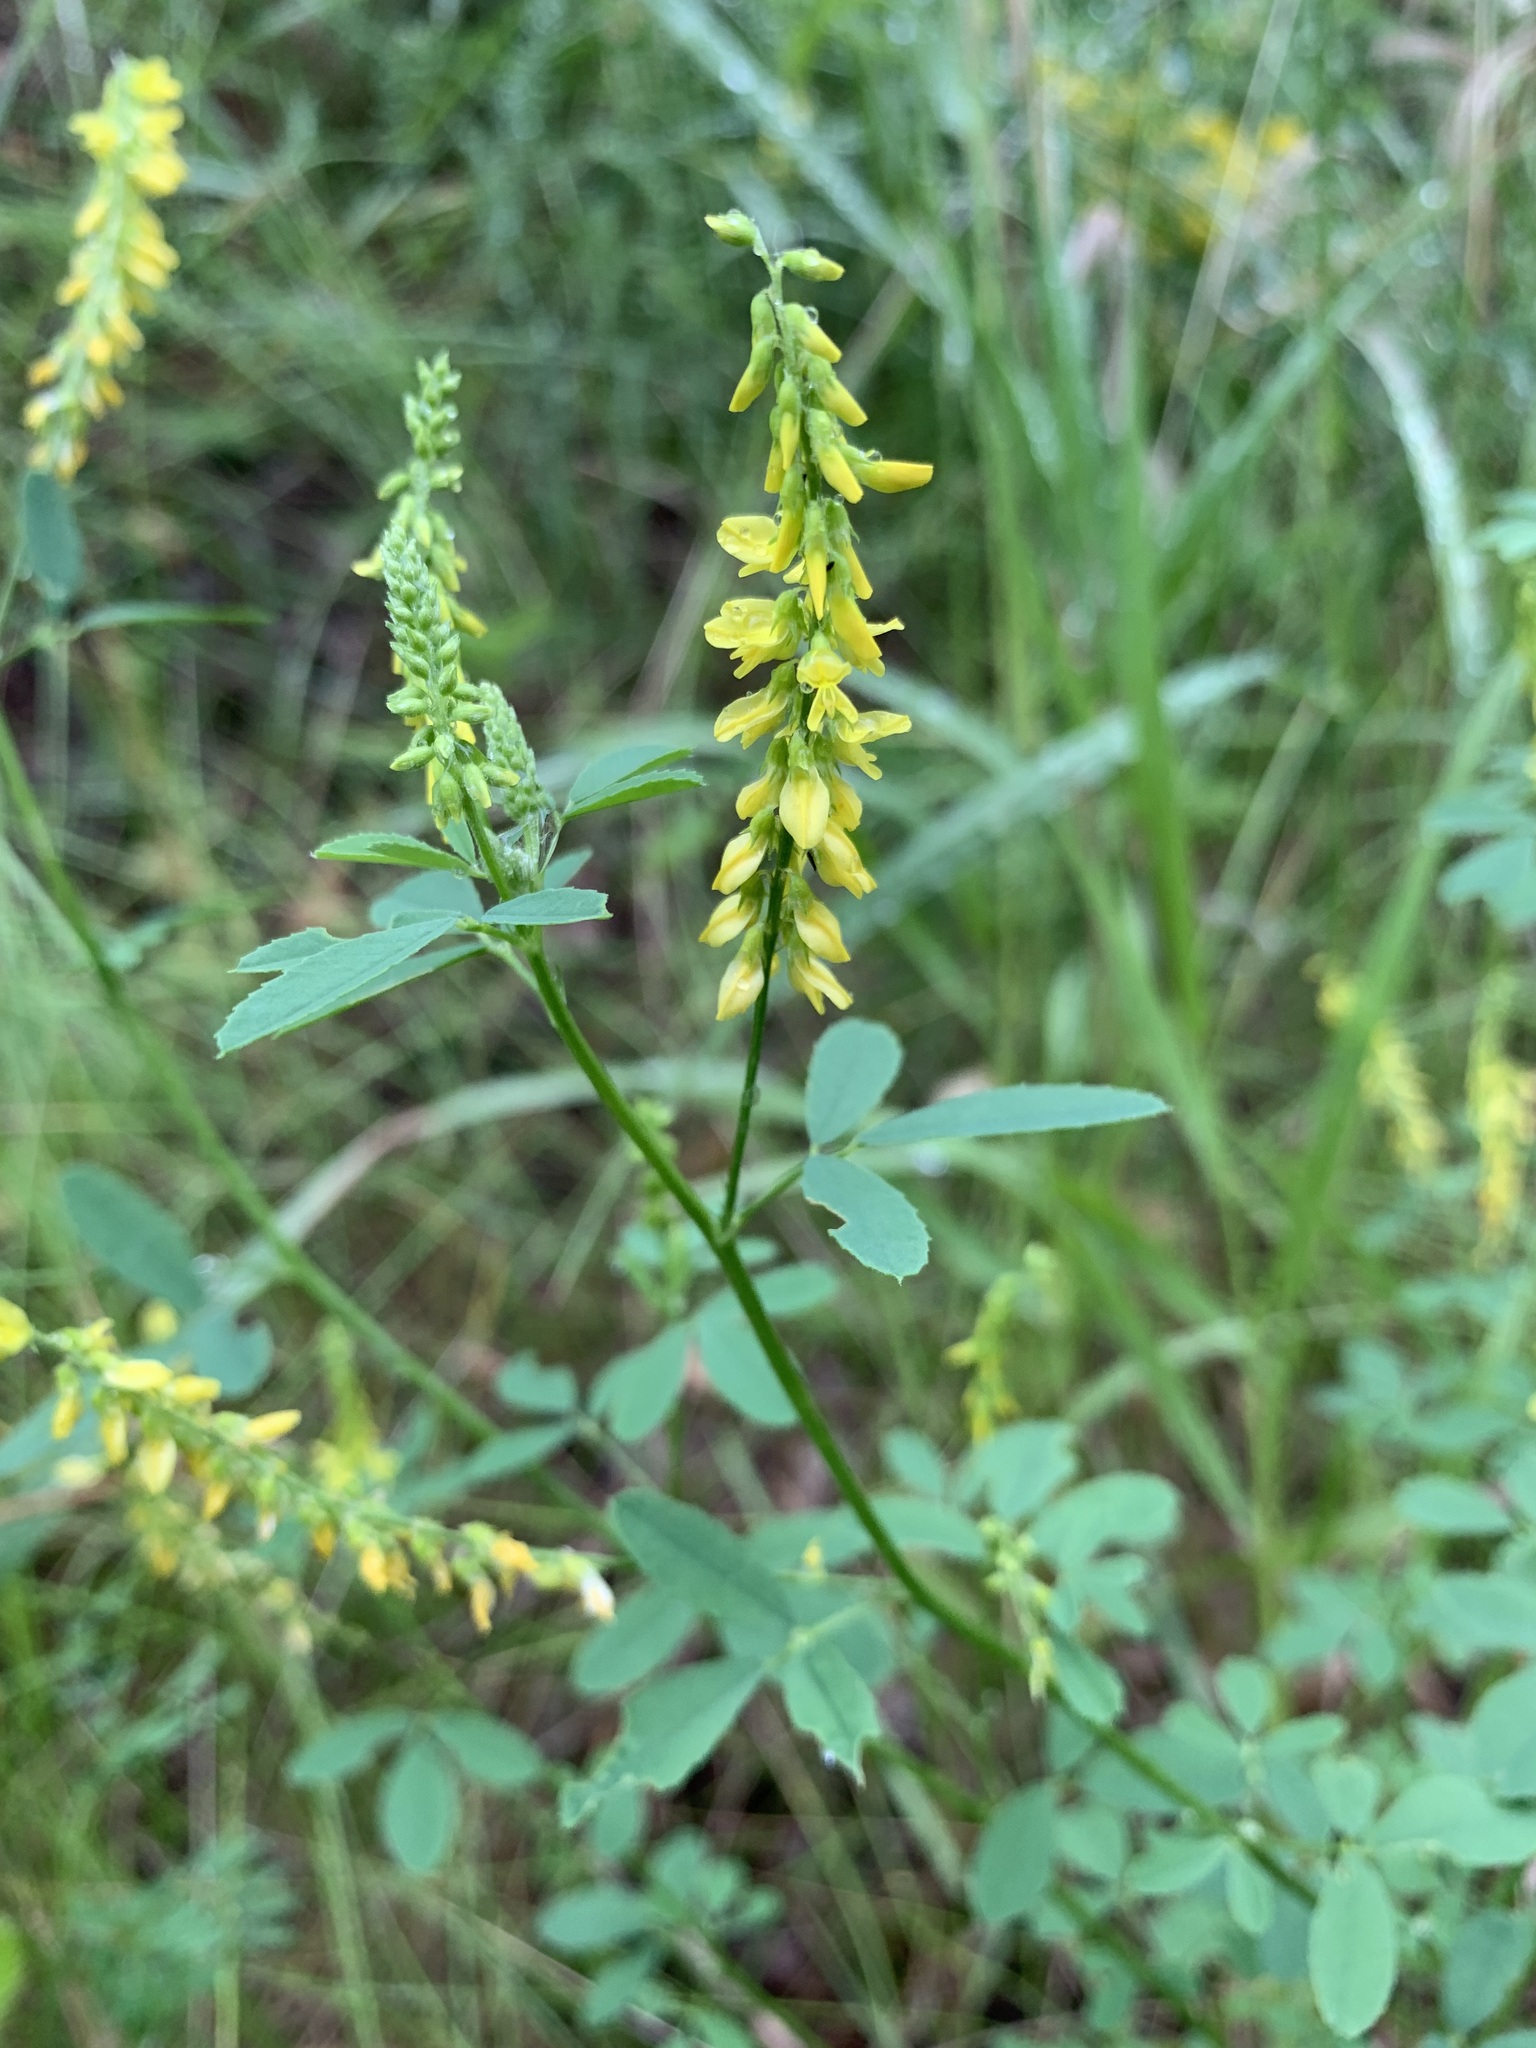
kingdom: Plantae
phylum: Tracheophyta
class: Magnoliopsida
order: Fabales
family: Fabaceae
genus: Melilotus
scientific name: Melilotus officinalis
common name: Sweetclover
